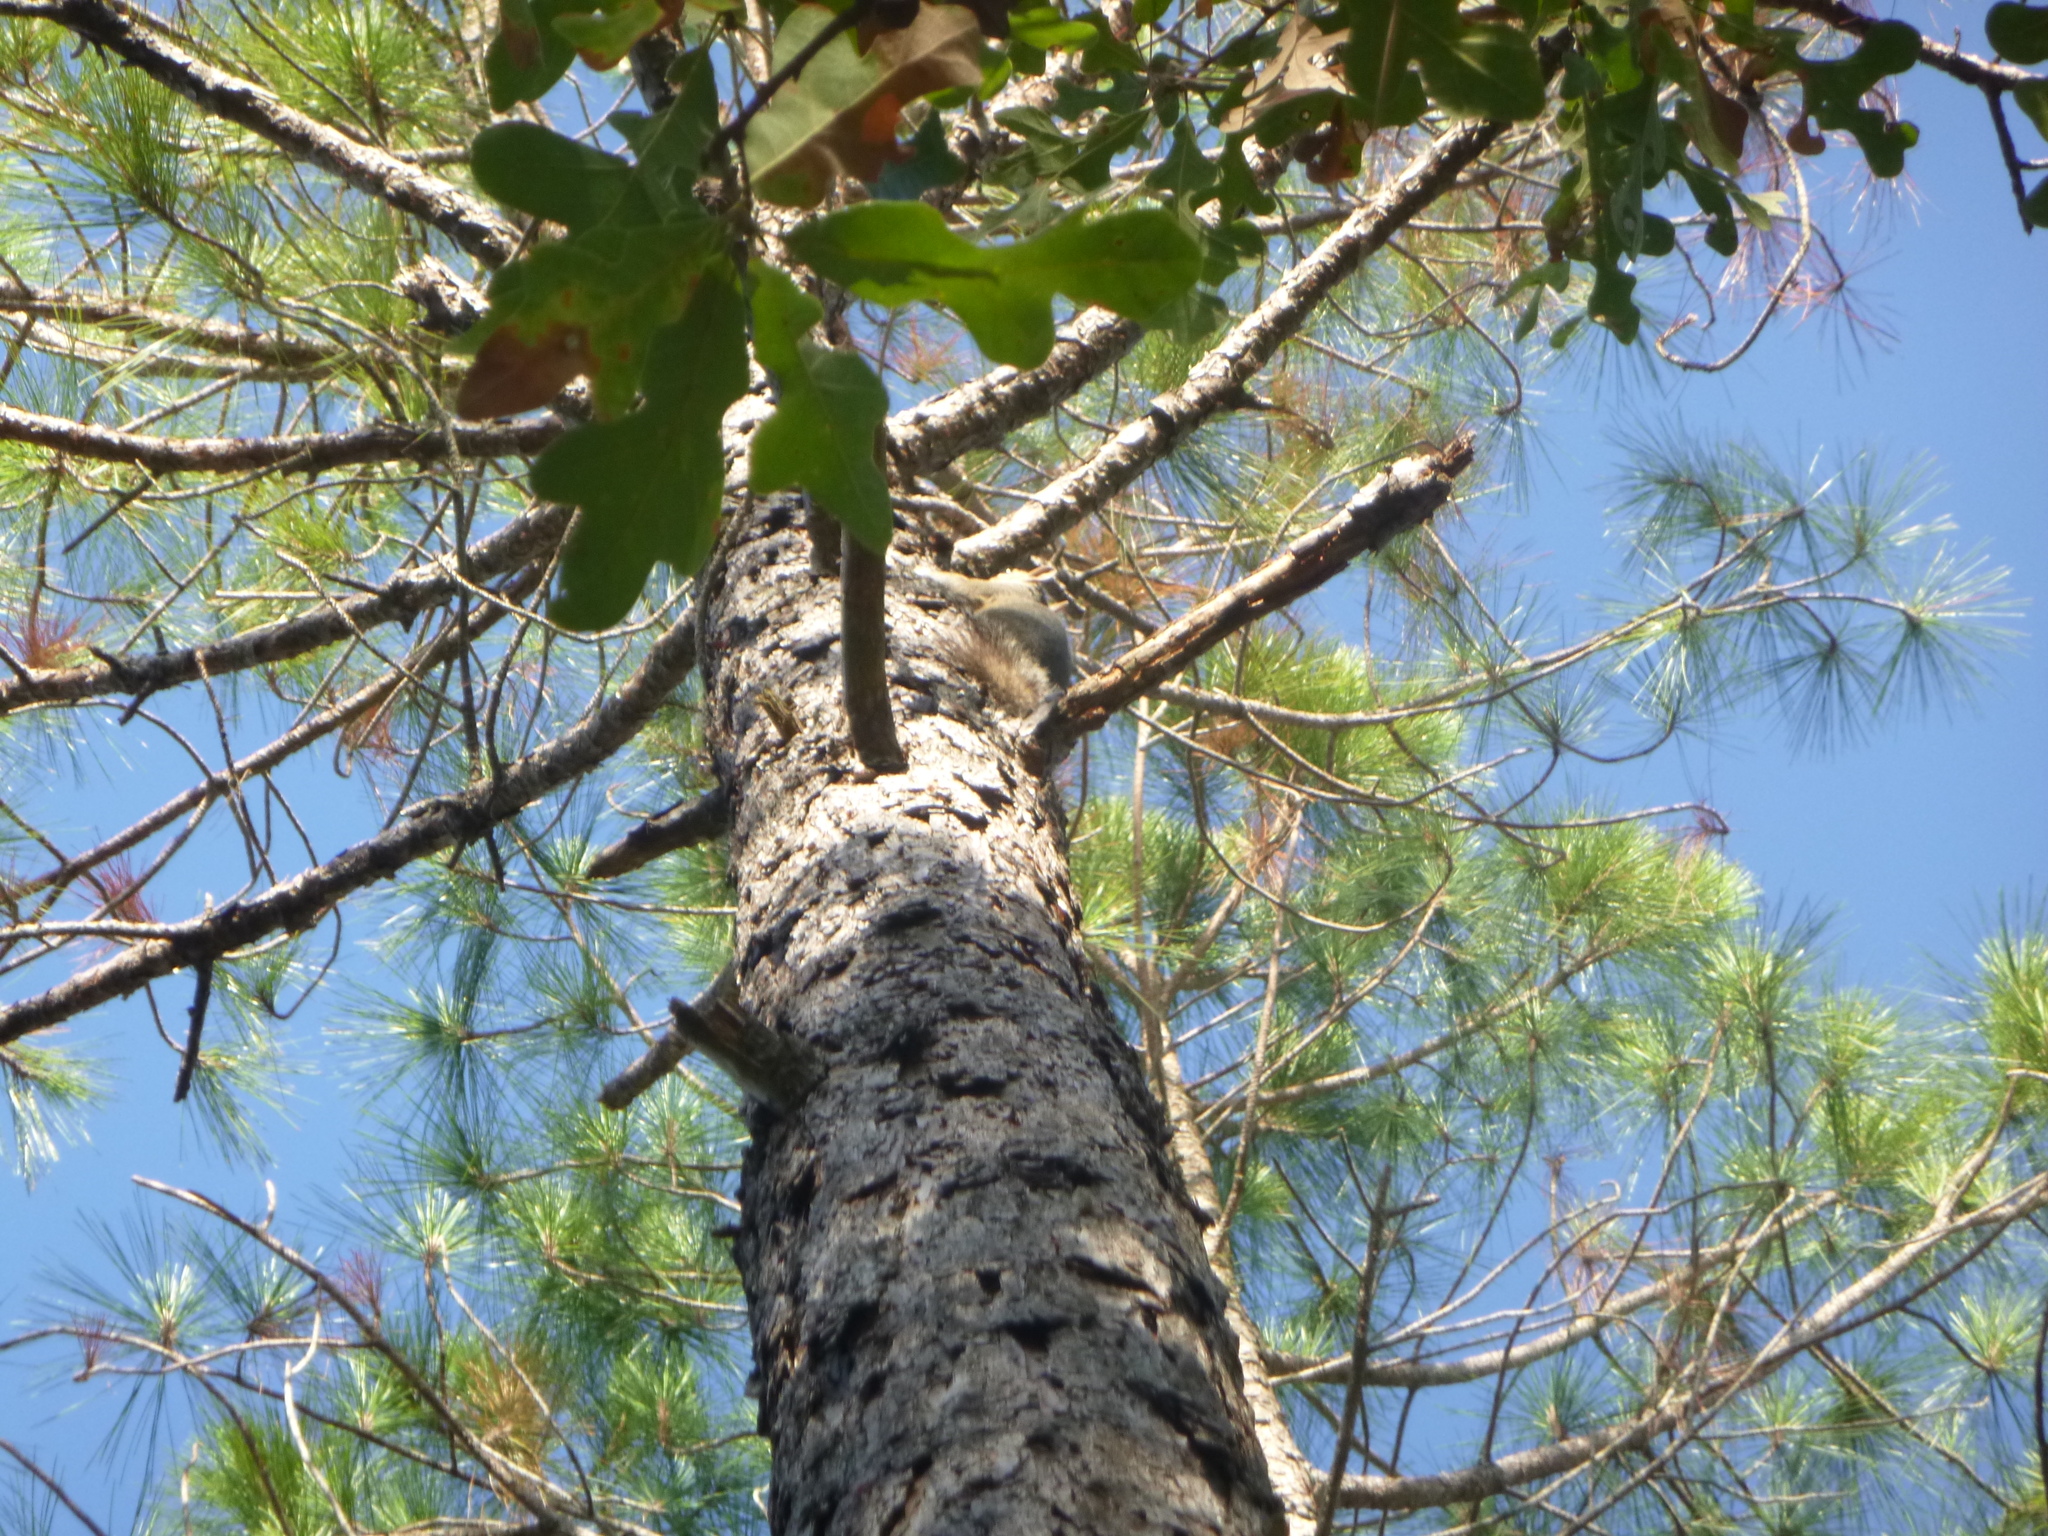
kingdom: Animalia
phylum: Chordata
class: Mammalia
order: Rodentia
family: Sciuridae
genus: Sciurus
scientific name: Sciurus carolinensis
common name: Eastern gray squirrel
